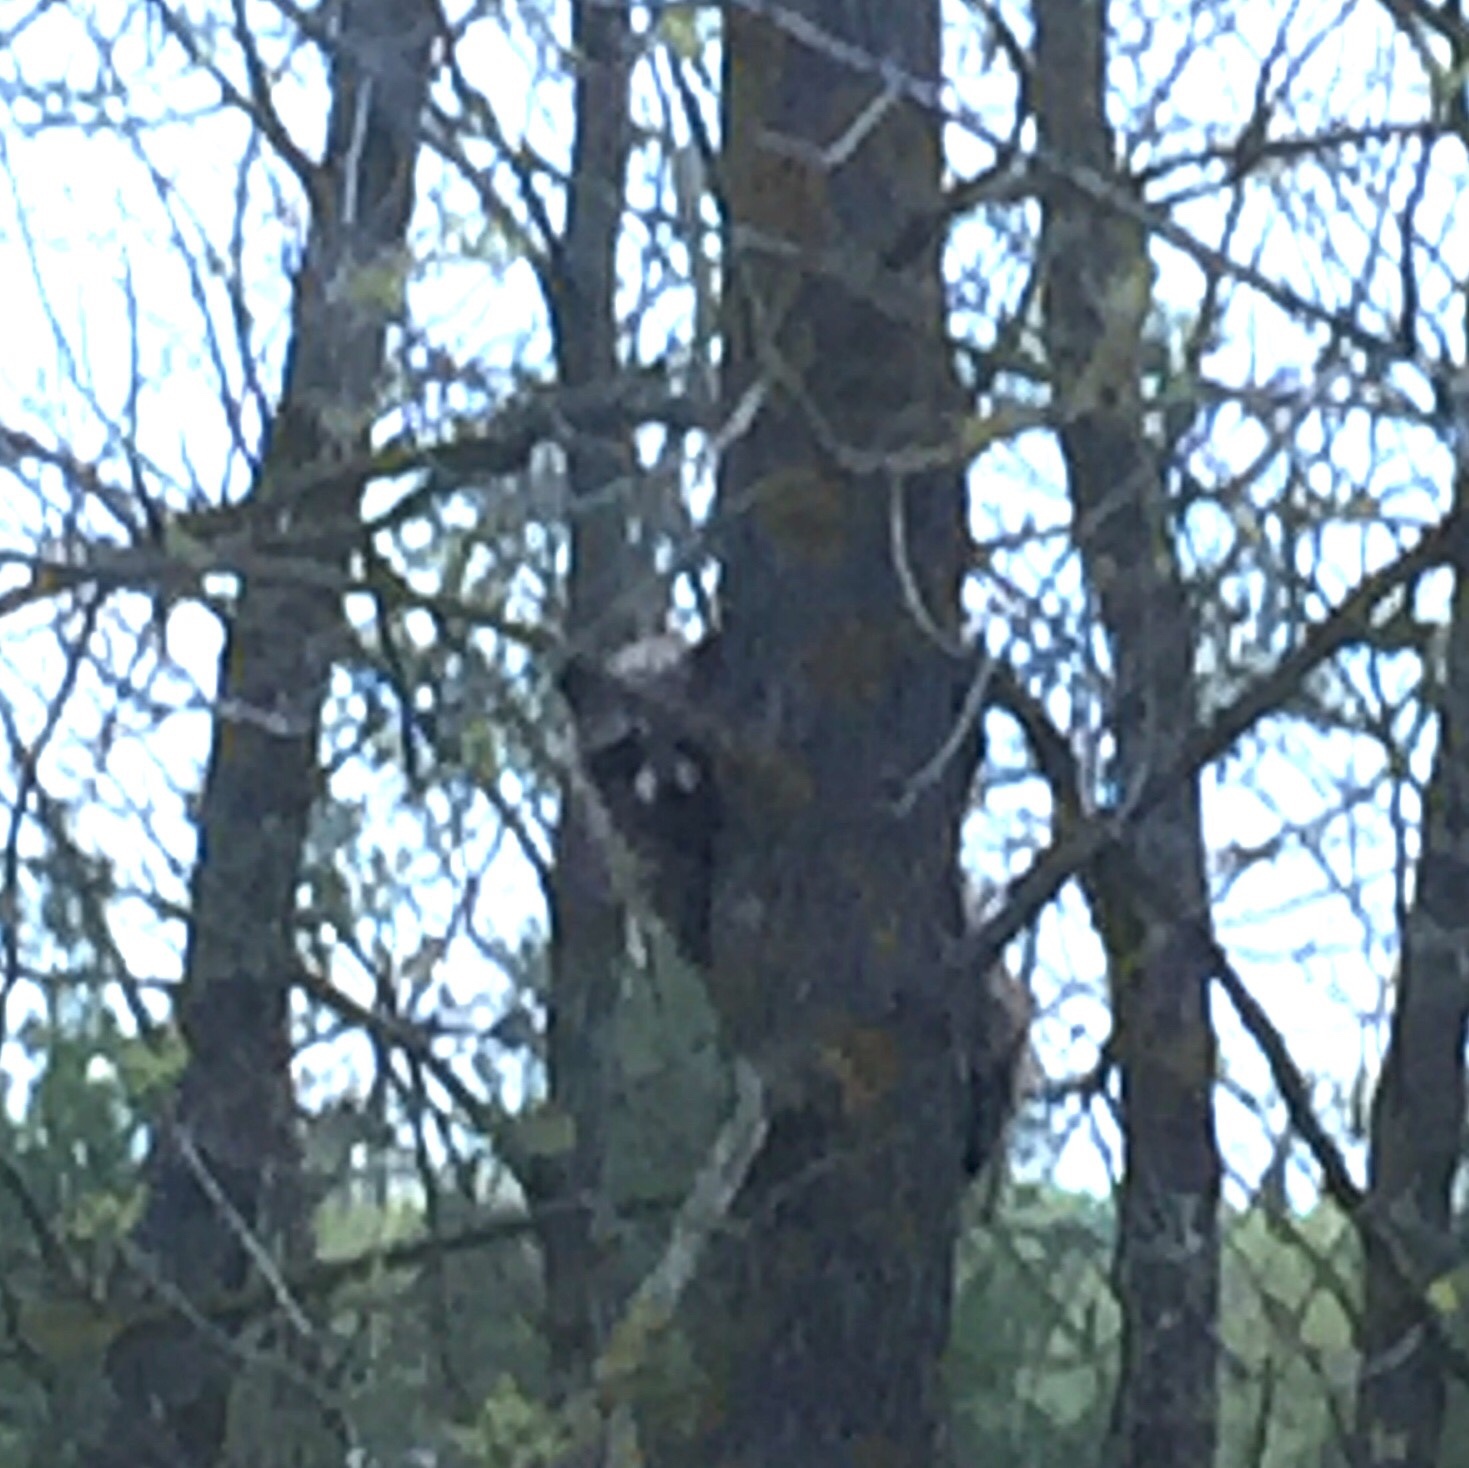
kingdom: Animalia
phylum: Chordata
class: Mammalia
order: Carnivora
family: Procyonidae
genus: Procyon
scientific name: Procyon lotor
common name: Raccoon
